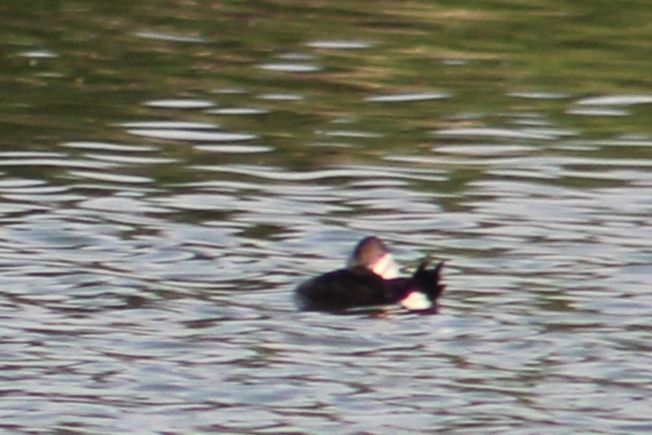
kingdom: Animalia
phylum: Chordata
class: Aves
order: Anseriformes
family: Anatidae
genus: Oxyura
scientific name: Oxyura jamaicensis
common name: Ruddy duck
